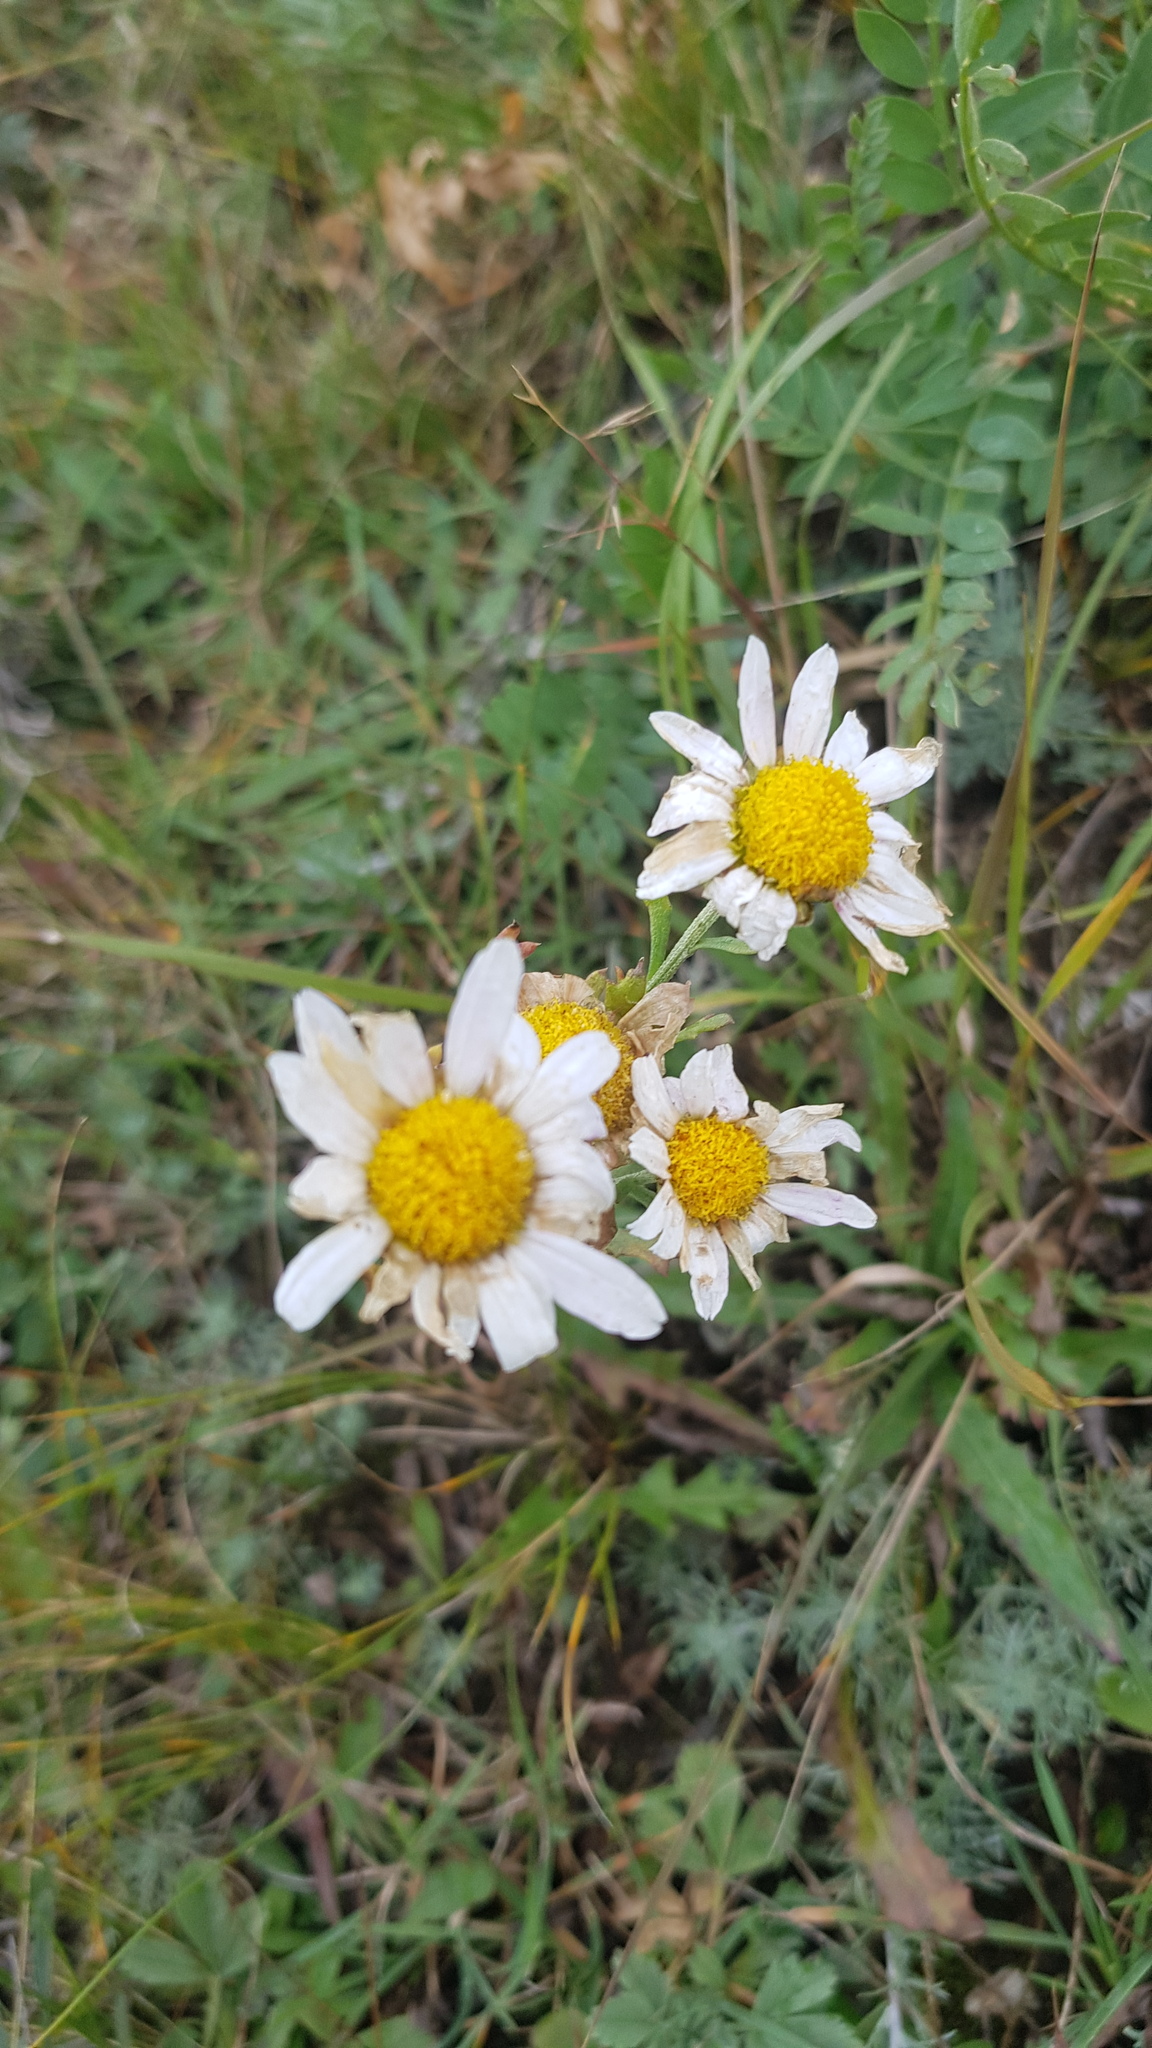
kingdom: Plantae
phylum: Tracheophyta
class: Magnoliopsida
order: Asterales
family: Asteraceae
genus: Chrysanthemum
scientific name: Chrysanthemum zawadzkii
